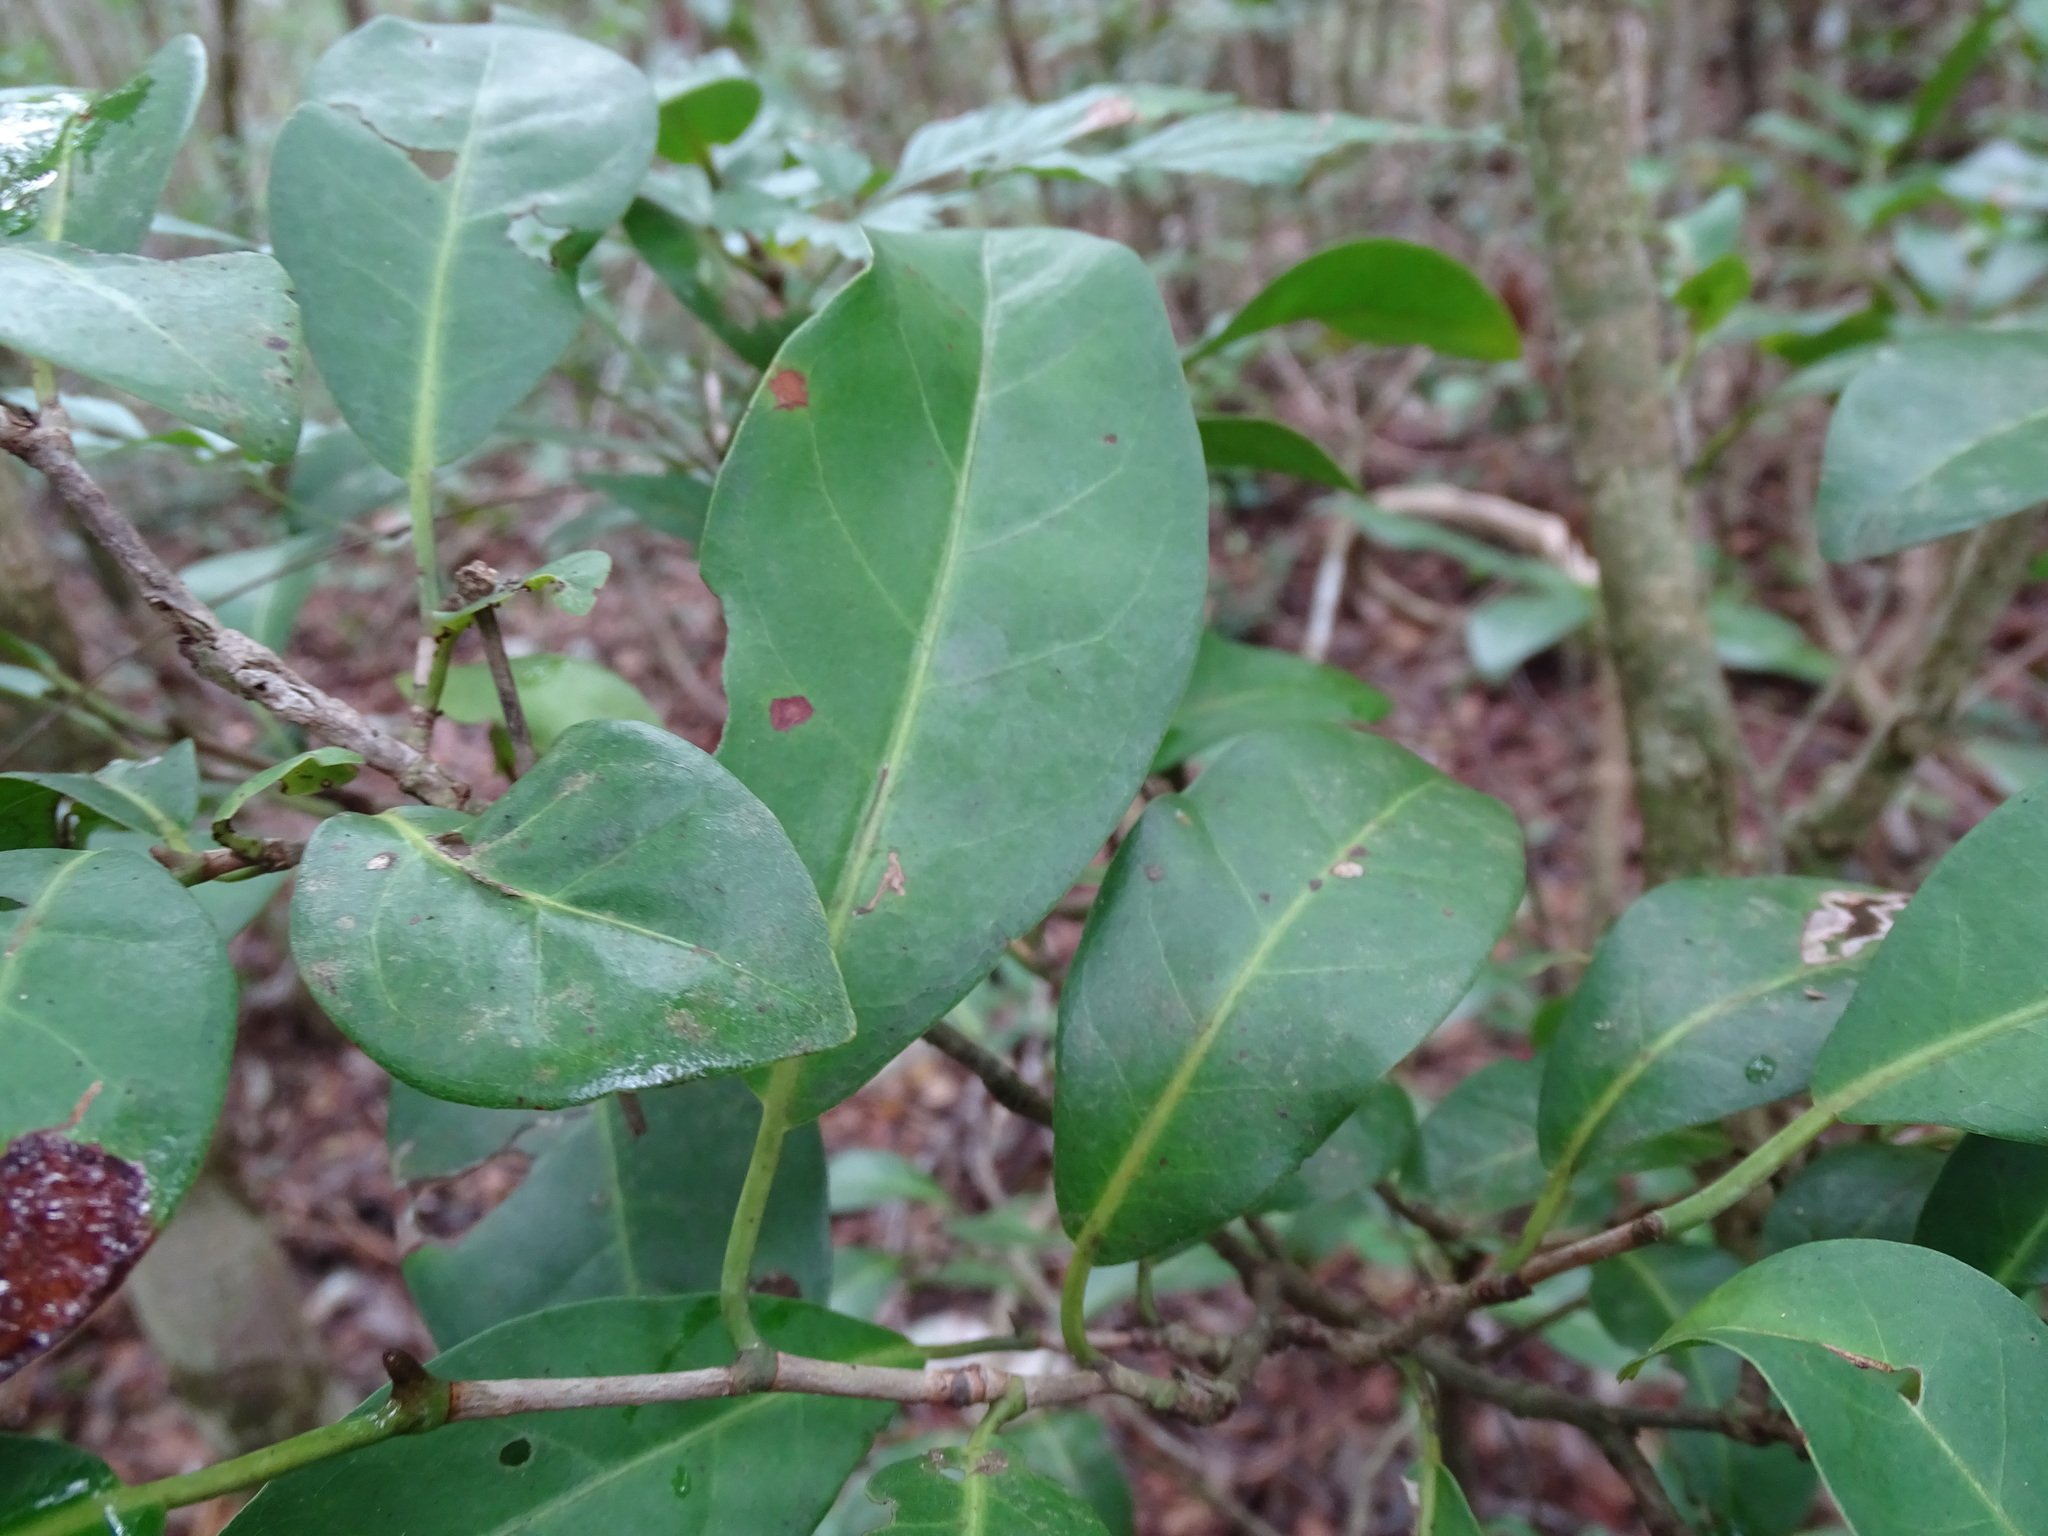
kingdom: Plantae
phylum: Tracheophyta
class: Magnoliopsida
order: Caryophyllales
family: Polygonaceae
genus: Coccoloba
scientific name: Coccoloba diversifolia
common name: Pigeon-plum
